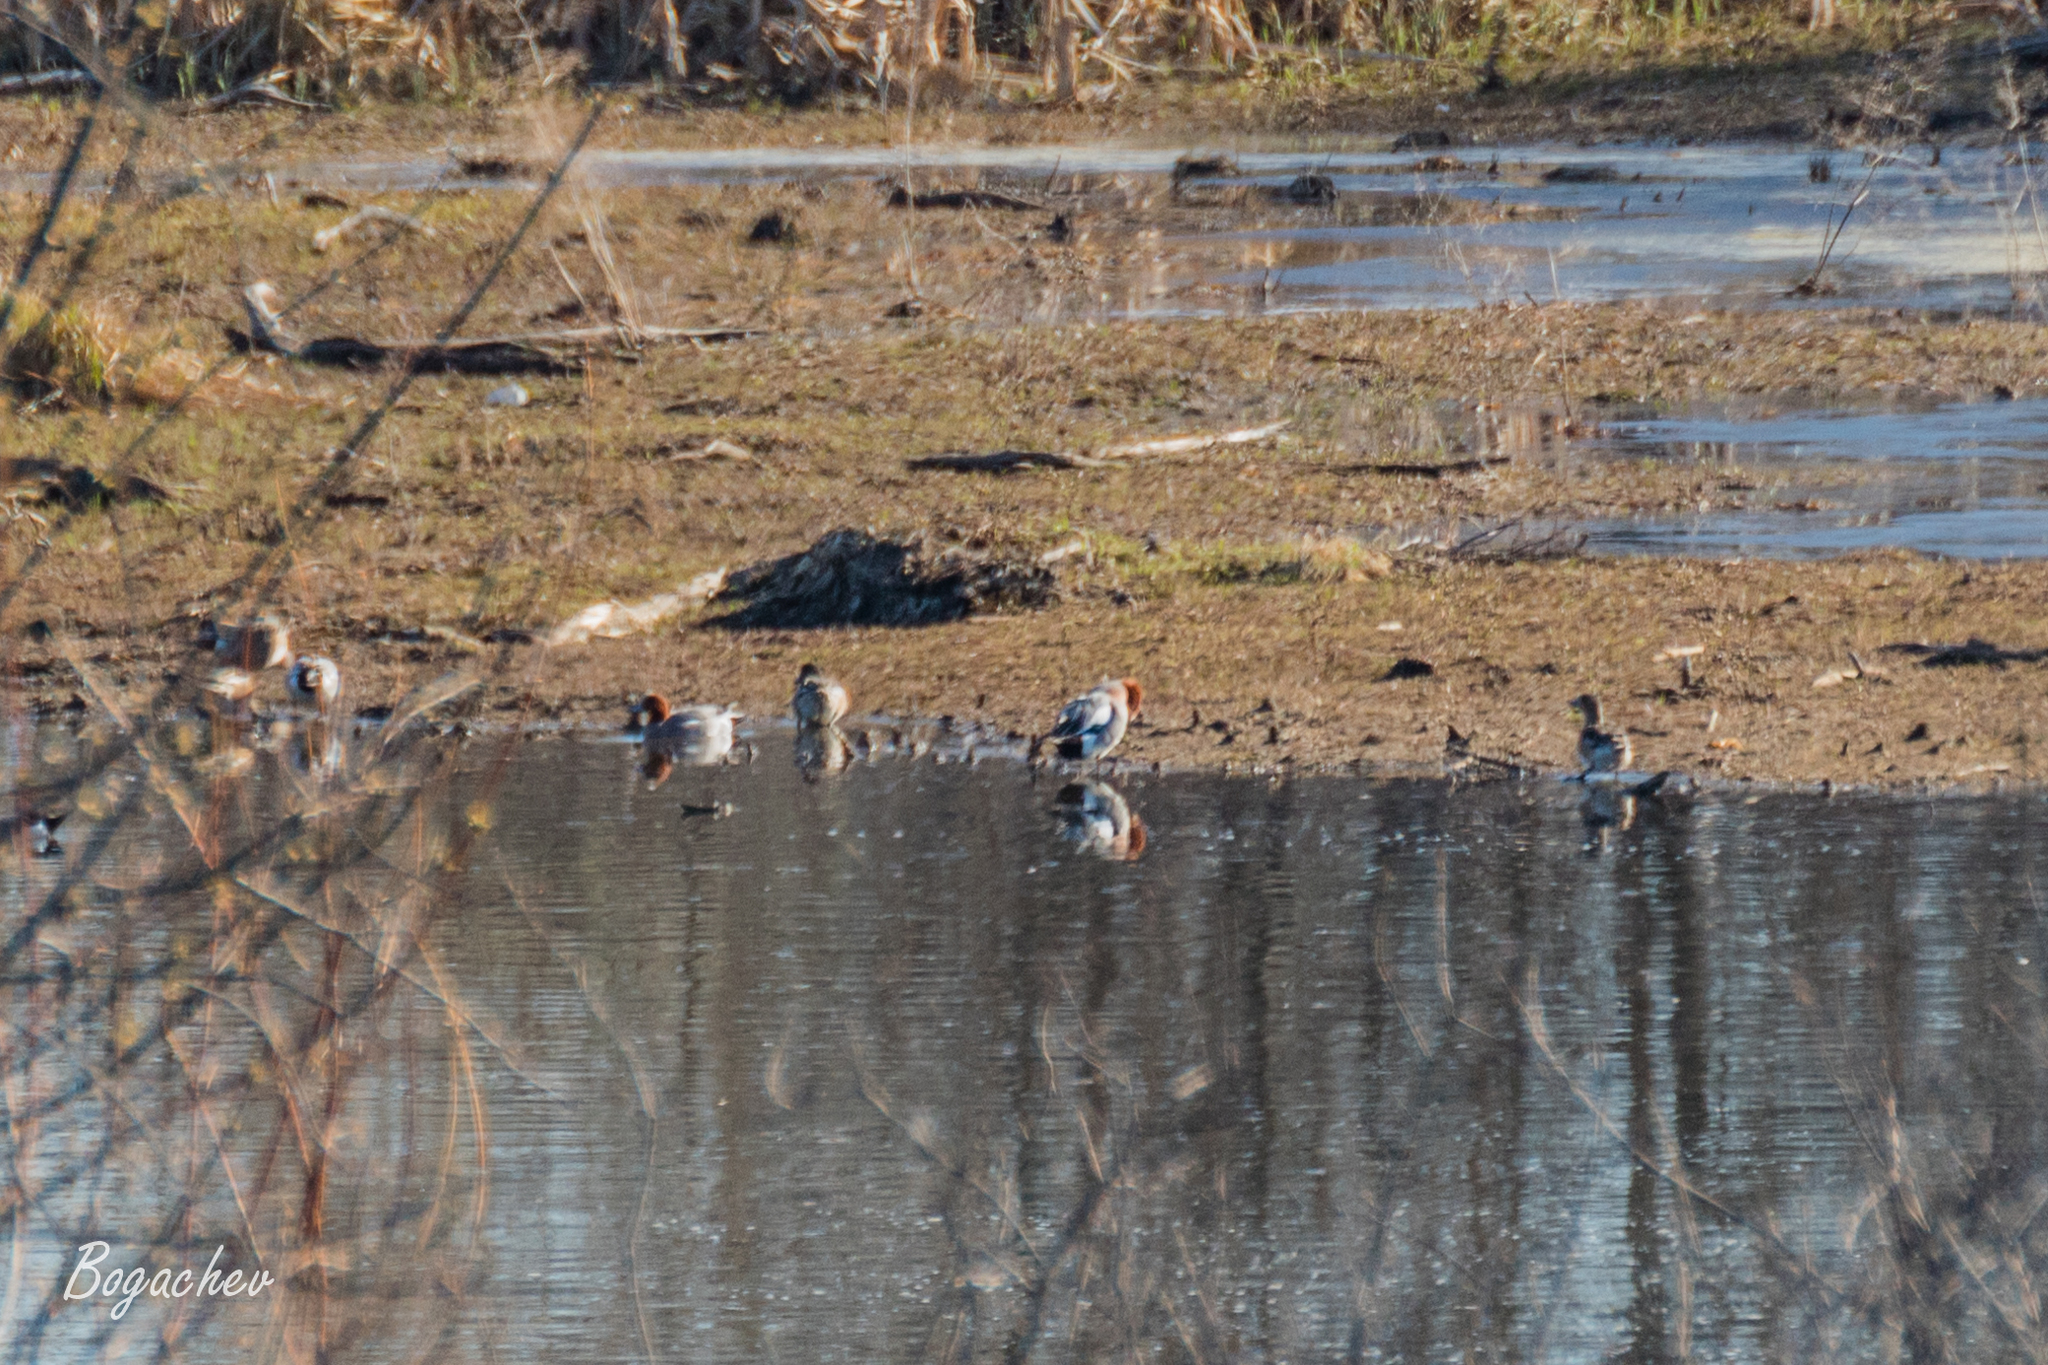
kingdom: Animalia
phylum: Chordata
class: Aves
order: Anseriformes
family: Anatidae
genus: Mareca
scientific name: Mareca penelope
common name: Eurasian wigeon
